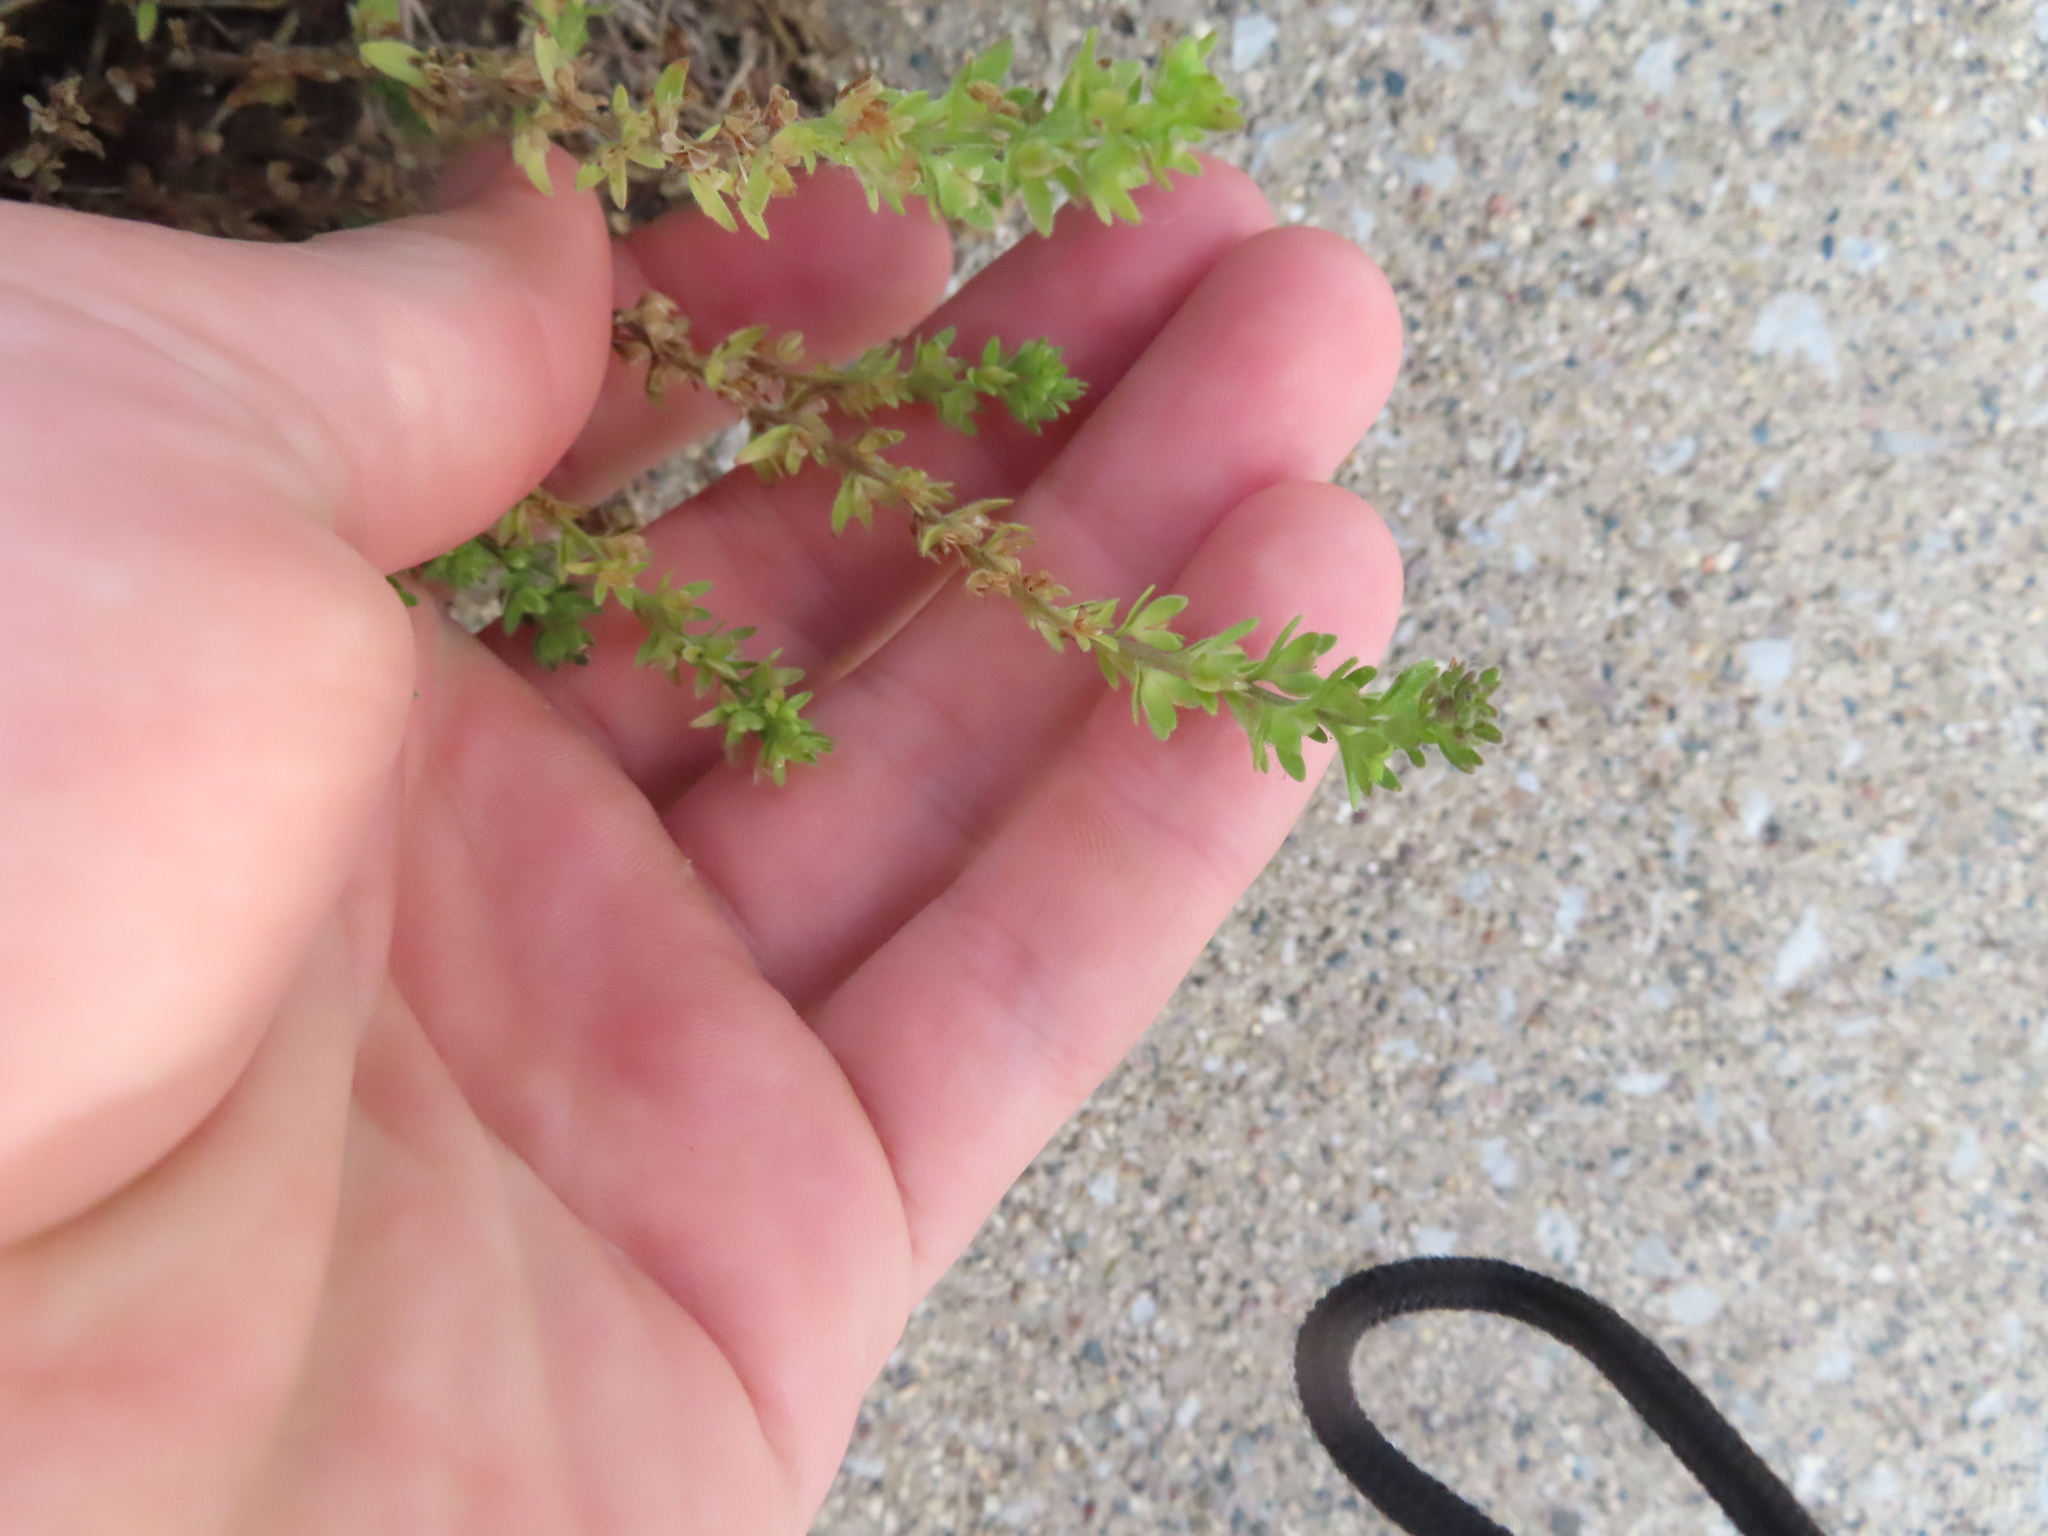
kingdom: Plantae
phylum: Tracheophyta
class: Magnoliopsida
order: Lamiales
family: Plantaginaceae
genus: Veronica
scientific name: Veronica arvensis
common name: Corn speedwell
